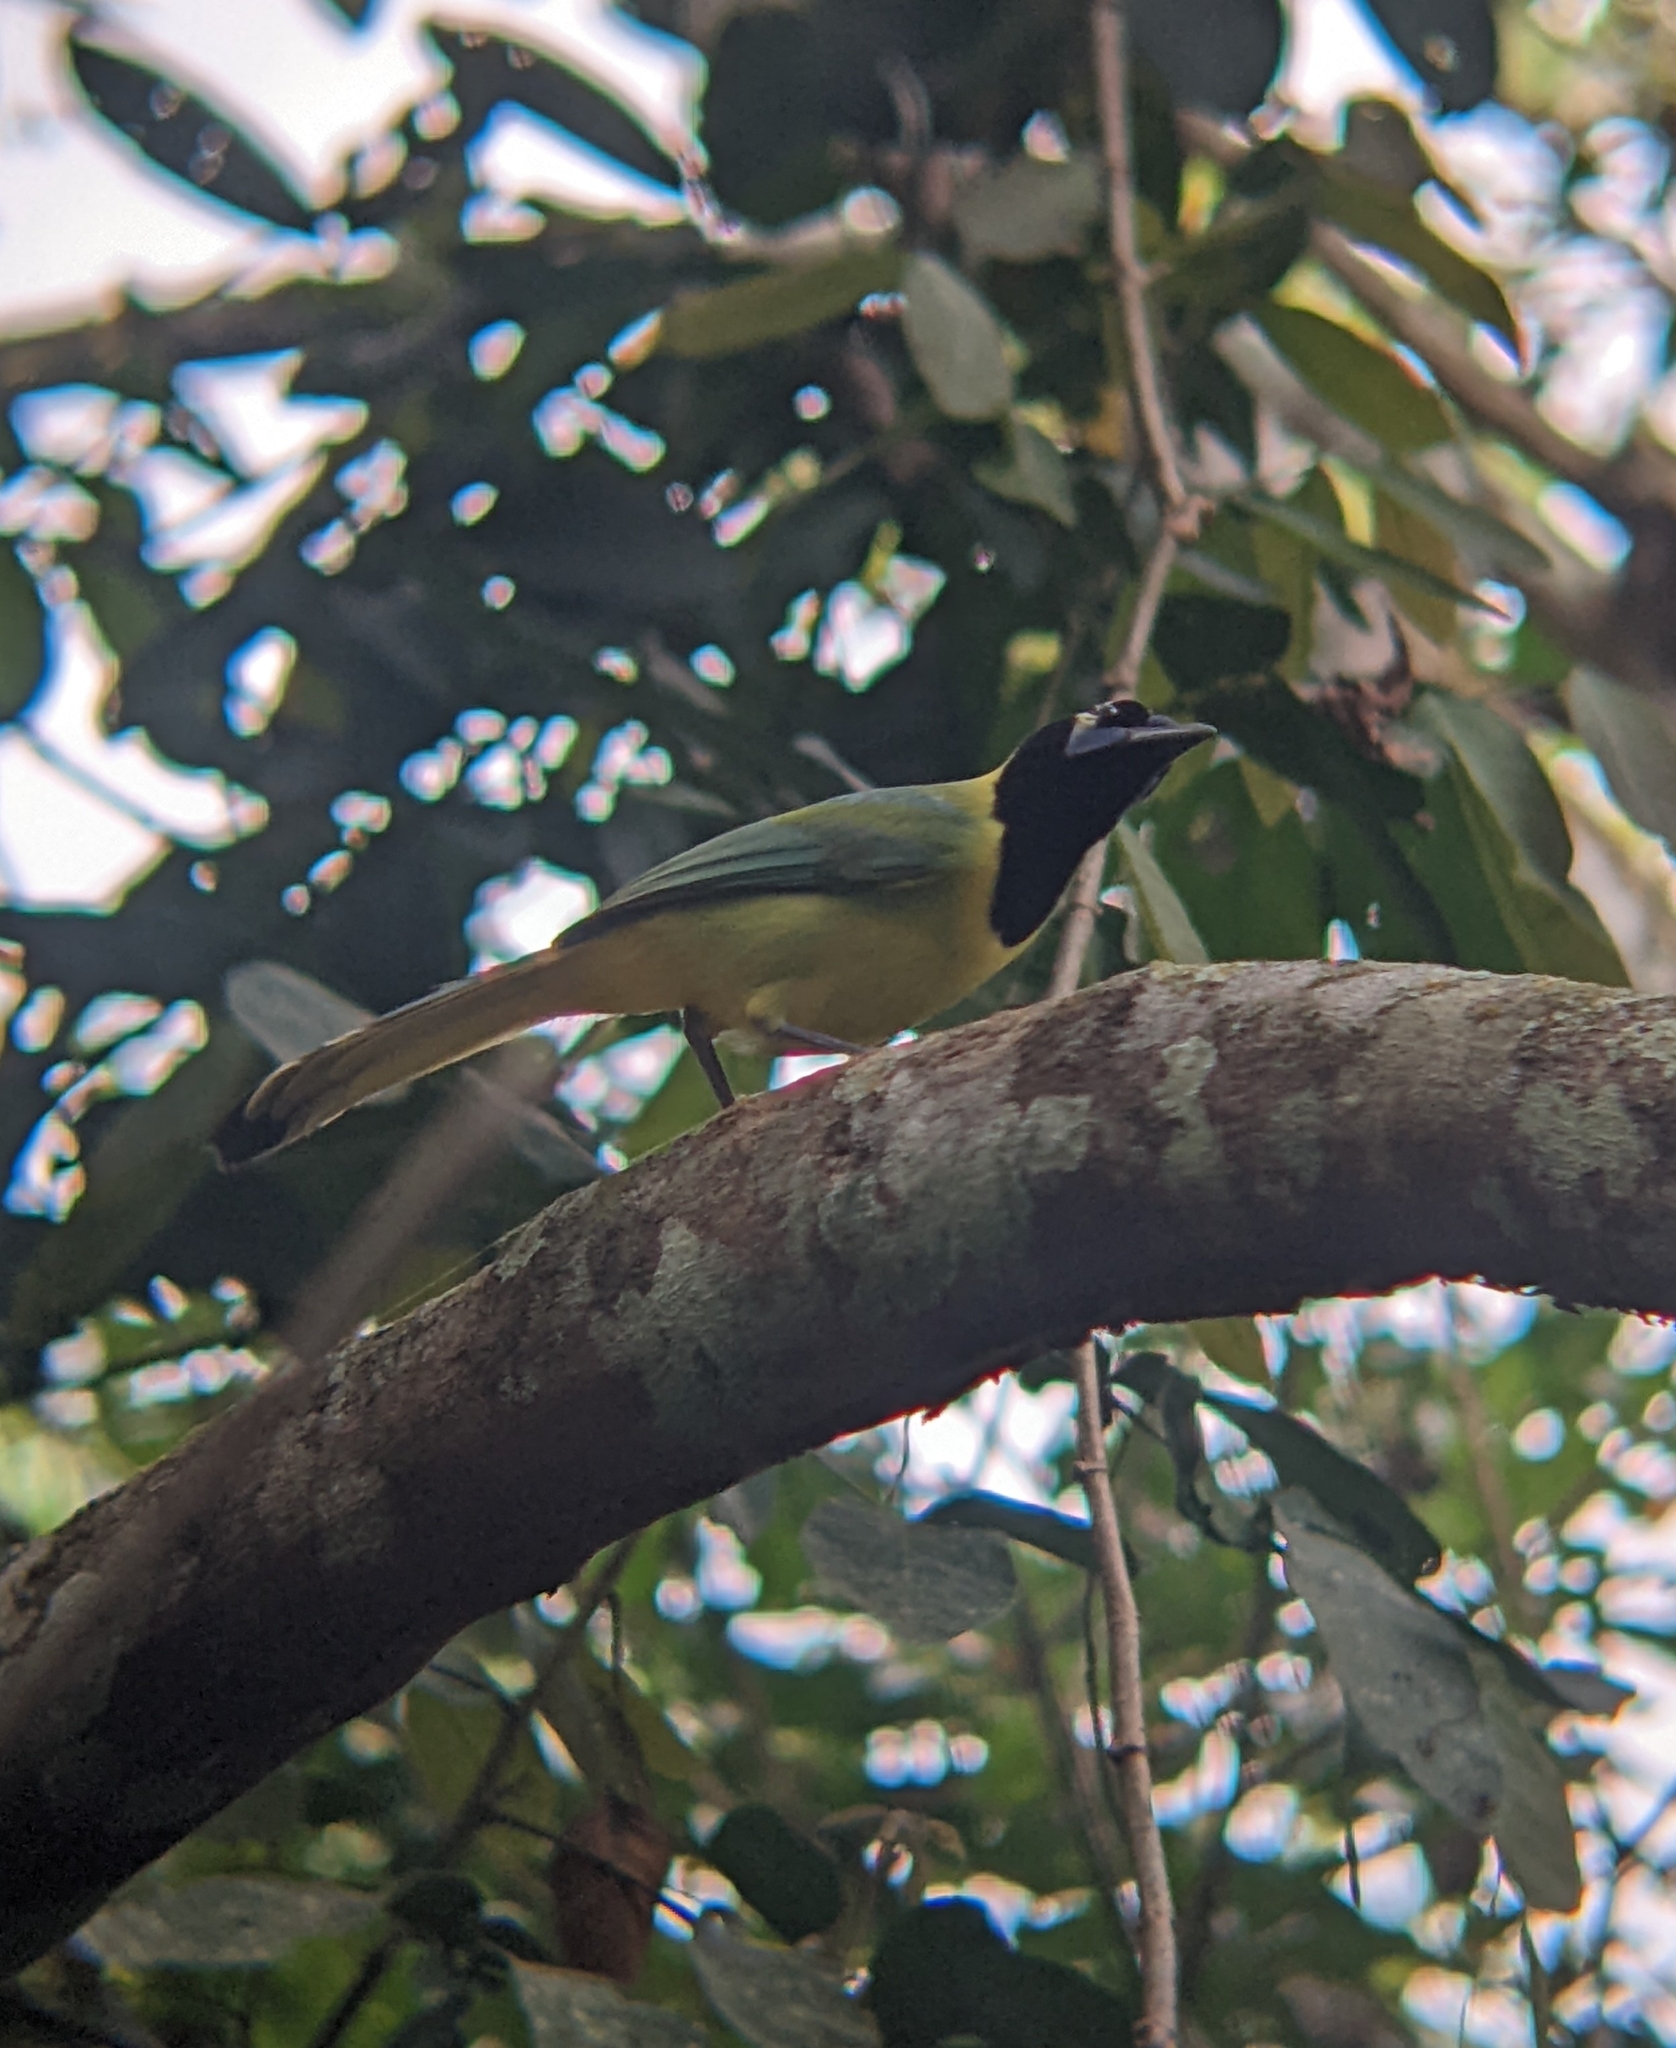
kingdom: Animalia
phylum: Chordata
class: Aves
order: Passeriformes
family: Corvidae
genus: Cyanocorax
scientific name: Cyanocorax yncas
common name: Green jay
